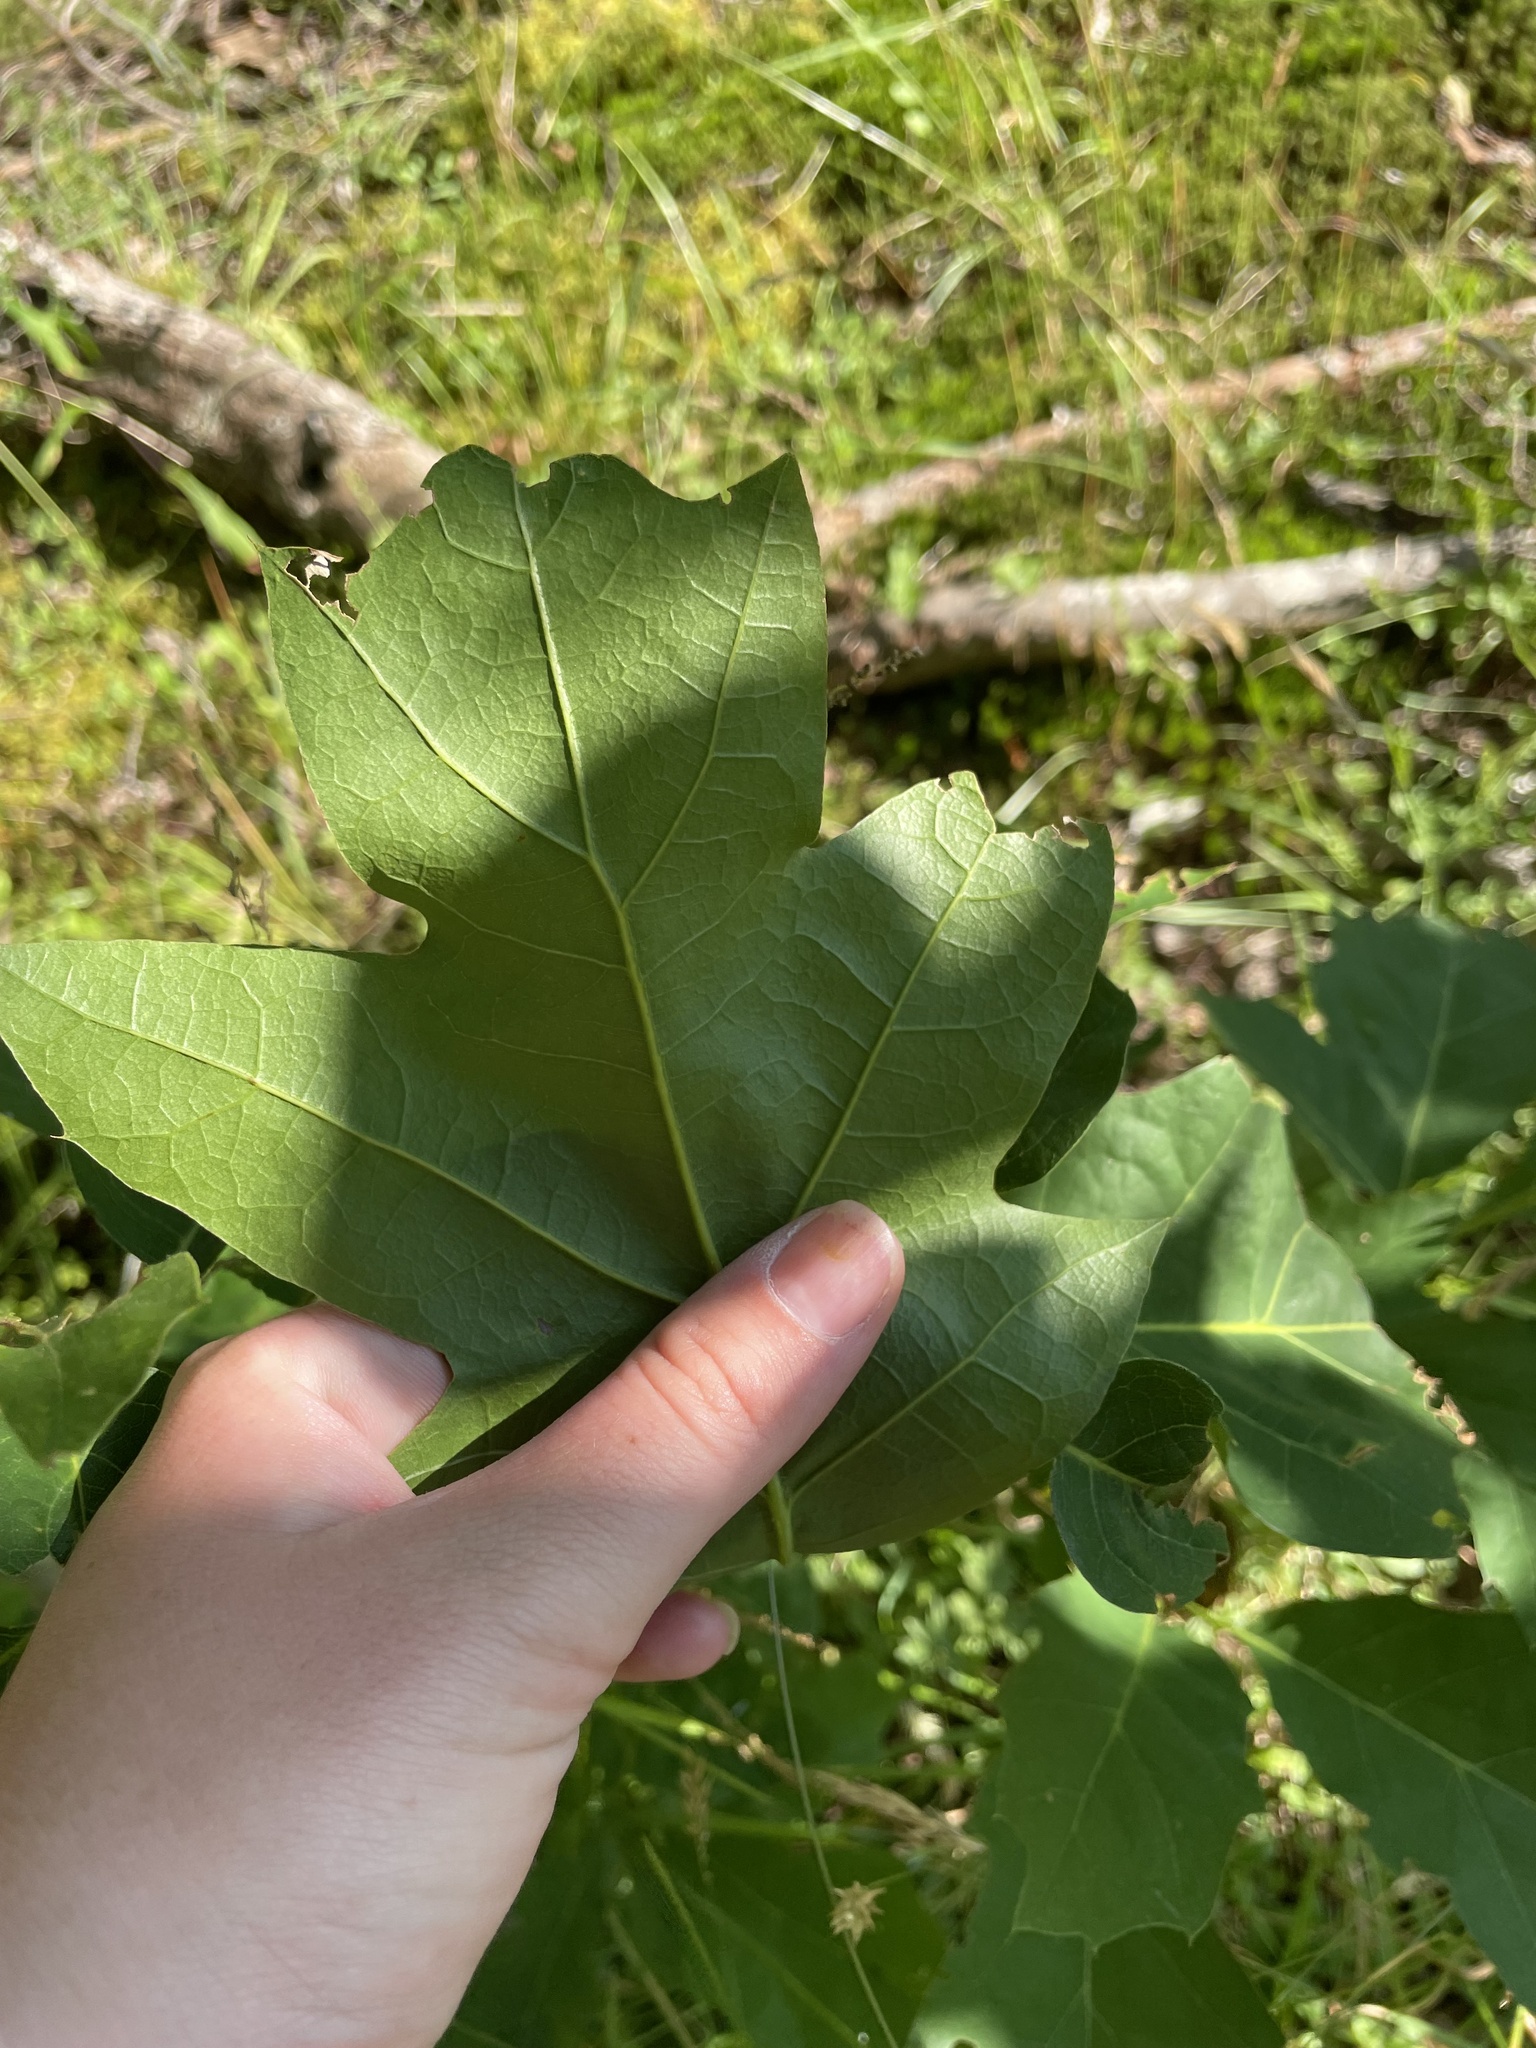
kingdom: Plantae
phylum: Tracheophyta
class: Magnoliopsida
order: Fagales
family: Fagaceae
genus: Quercus
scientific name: Quercus rubra
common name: Red oak
